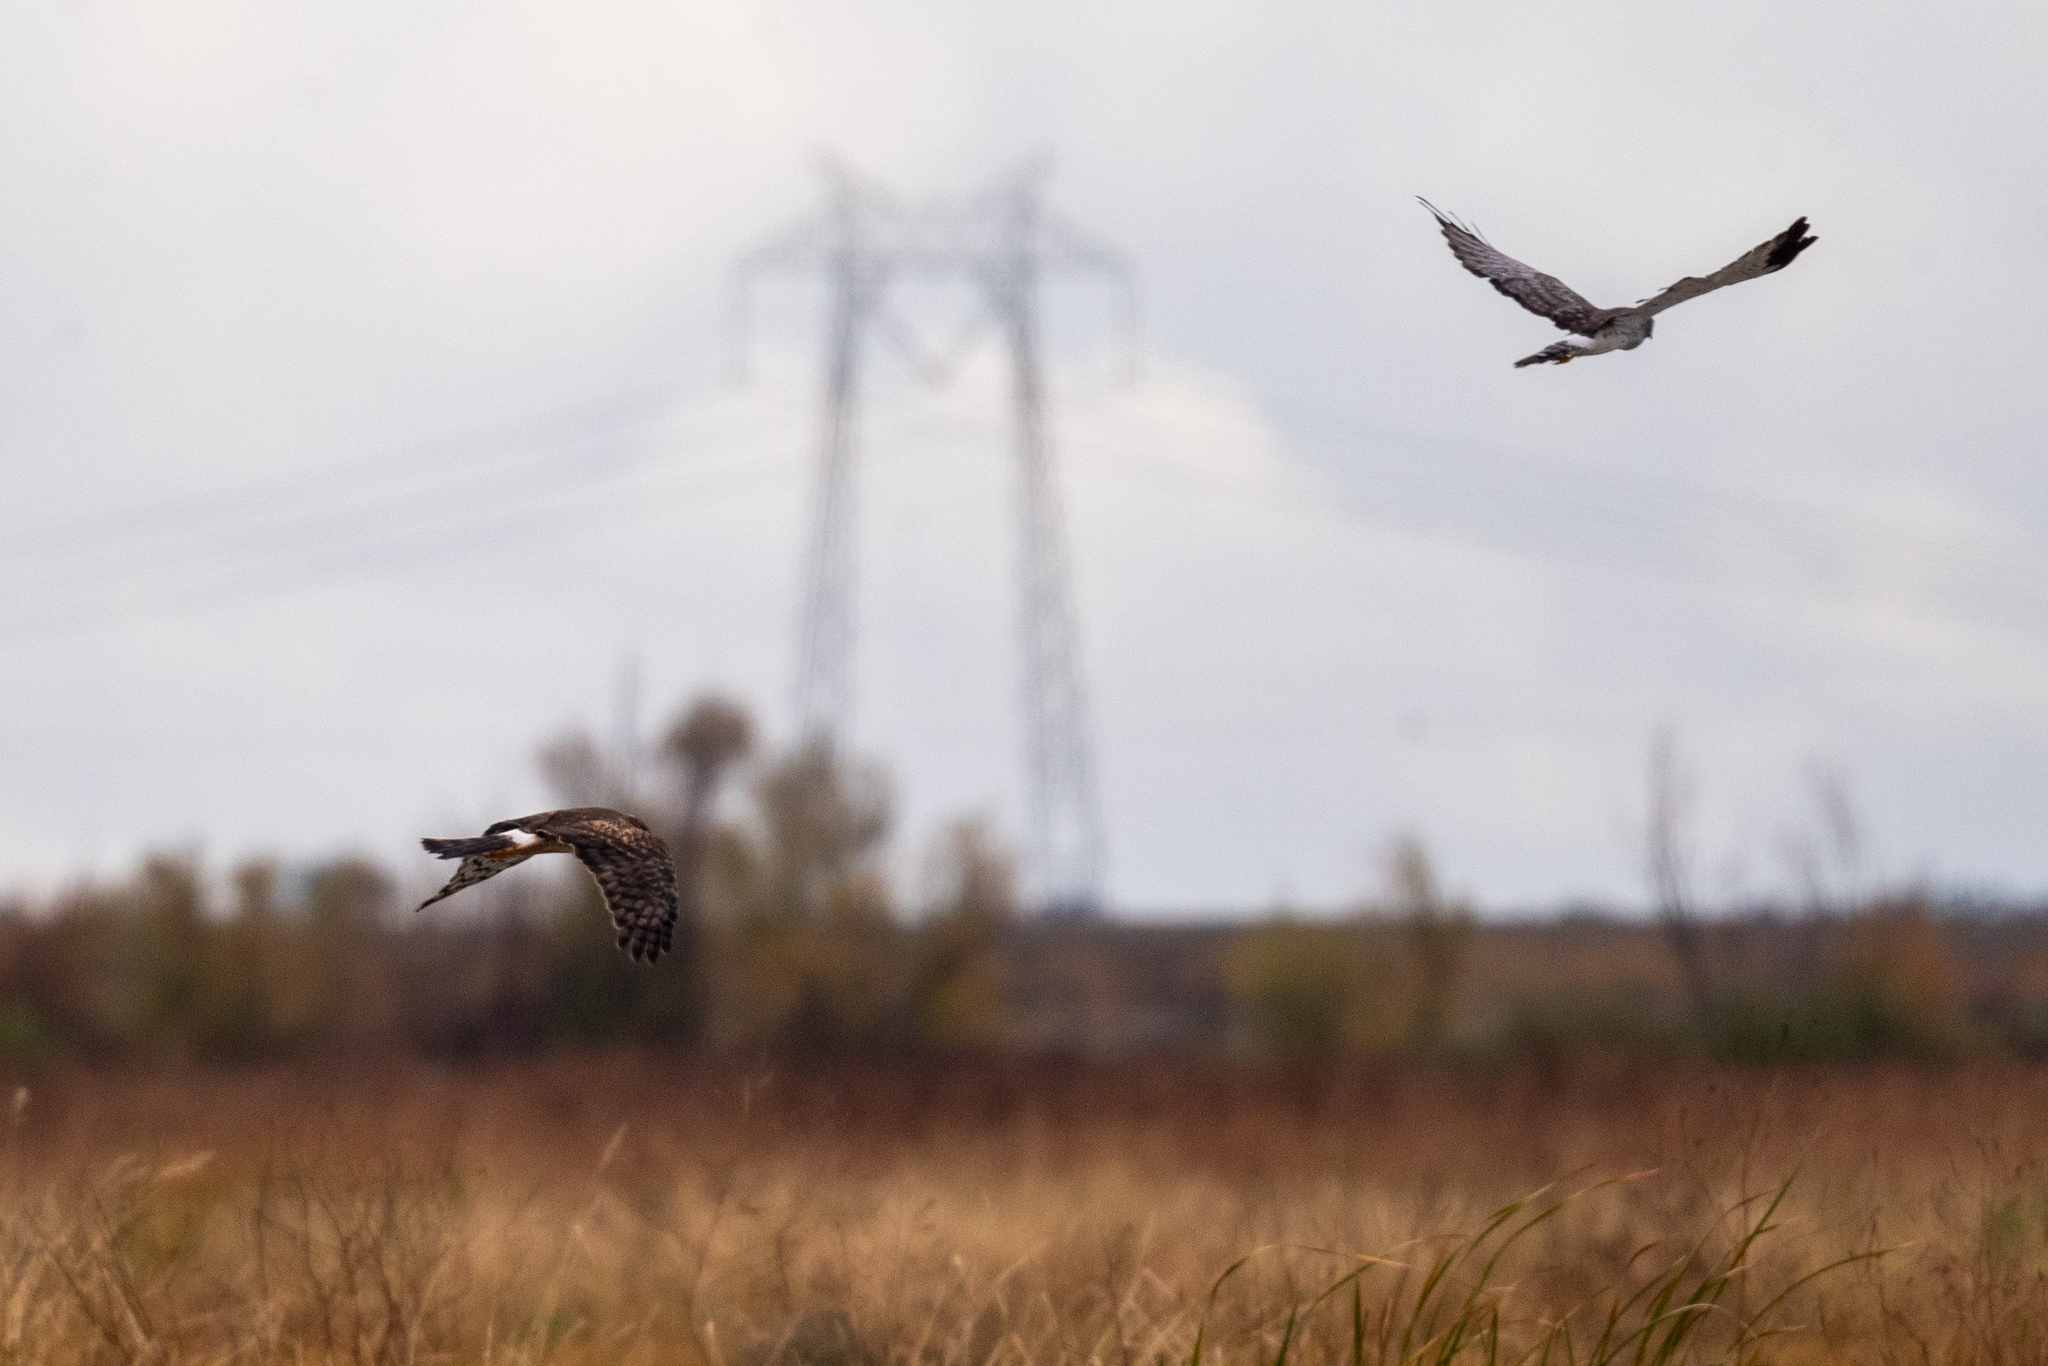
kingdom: Animalia
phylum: Chordata
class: Aves
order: Accipitriformes
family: Accipitridae
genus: Circus
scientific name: Circus cyaneus
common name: Hen harrier
